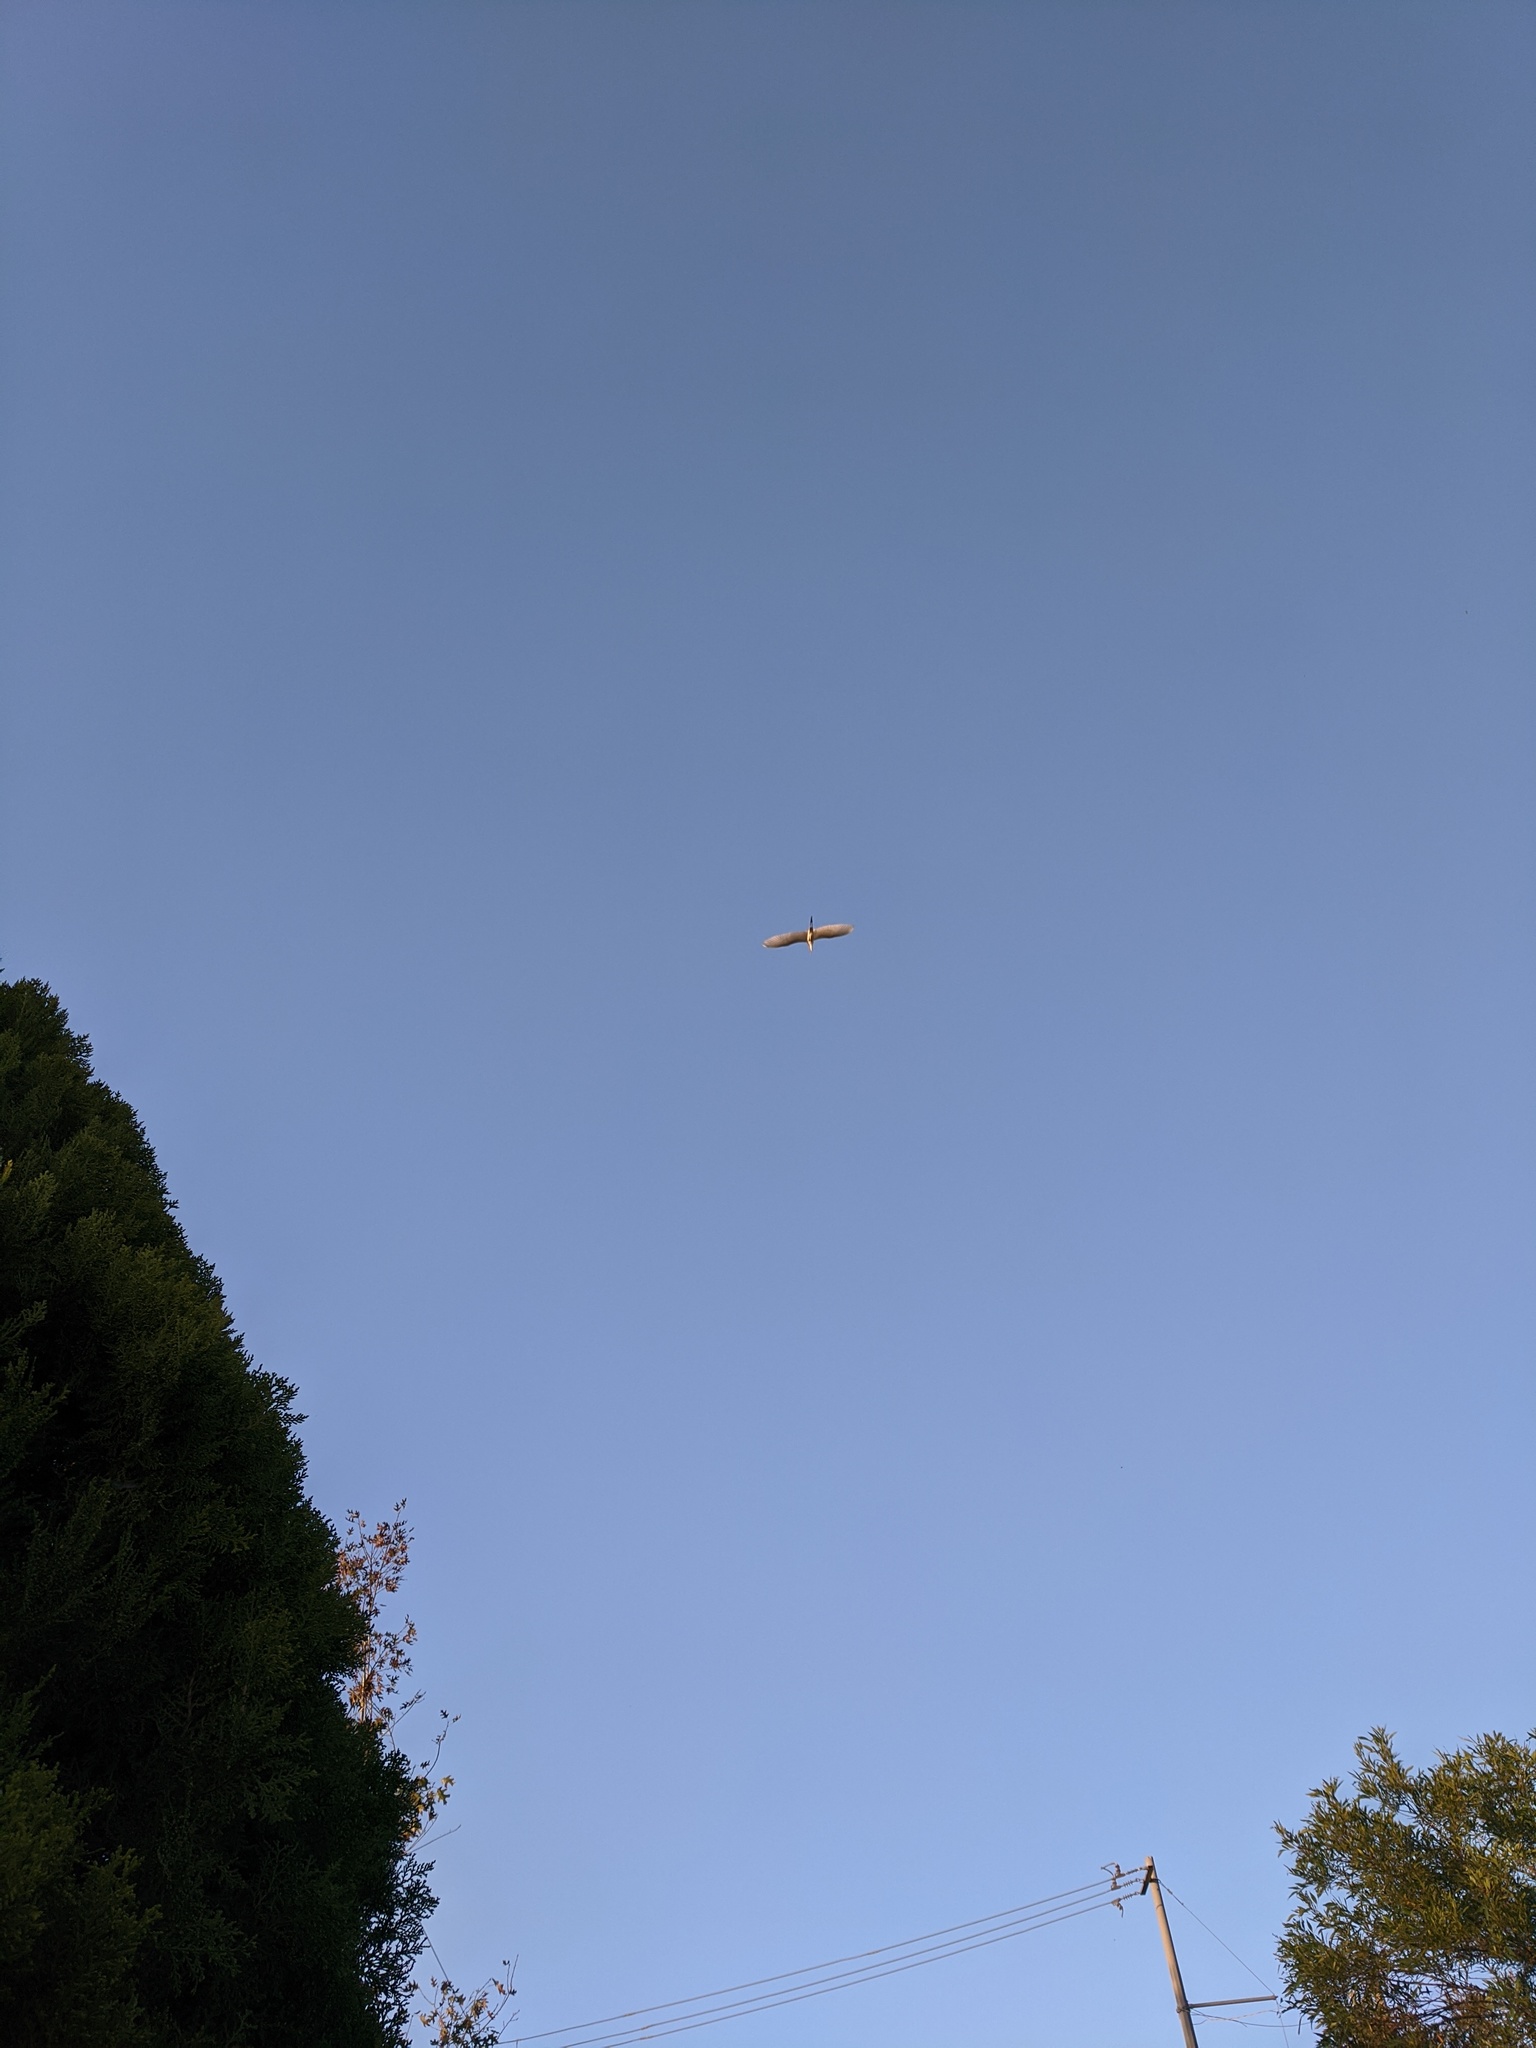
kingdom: Animalia
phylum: Chordata
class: Aves
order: Pelecaniformes
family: Ardeidae
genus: Ardea
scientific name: Ardea alba
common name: Great egret
